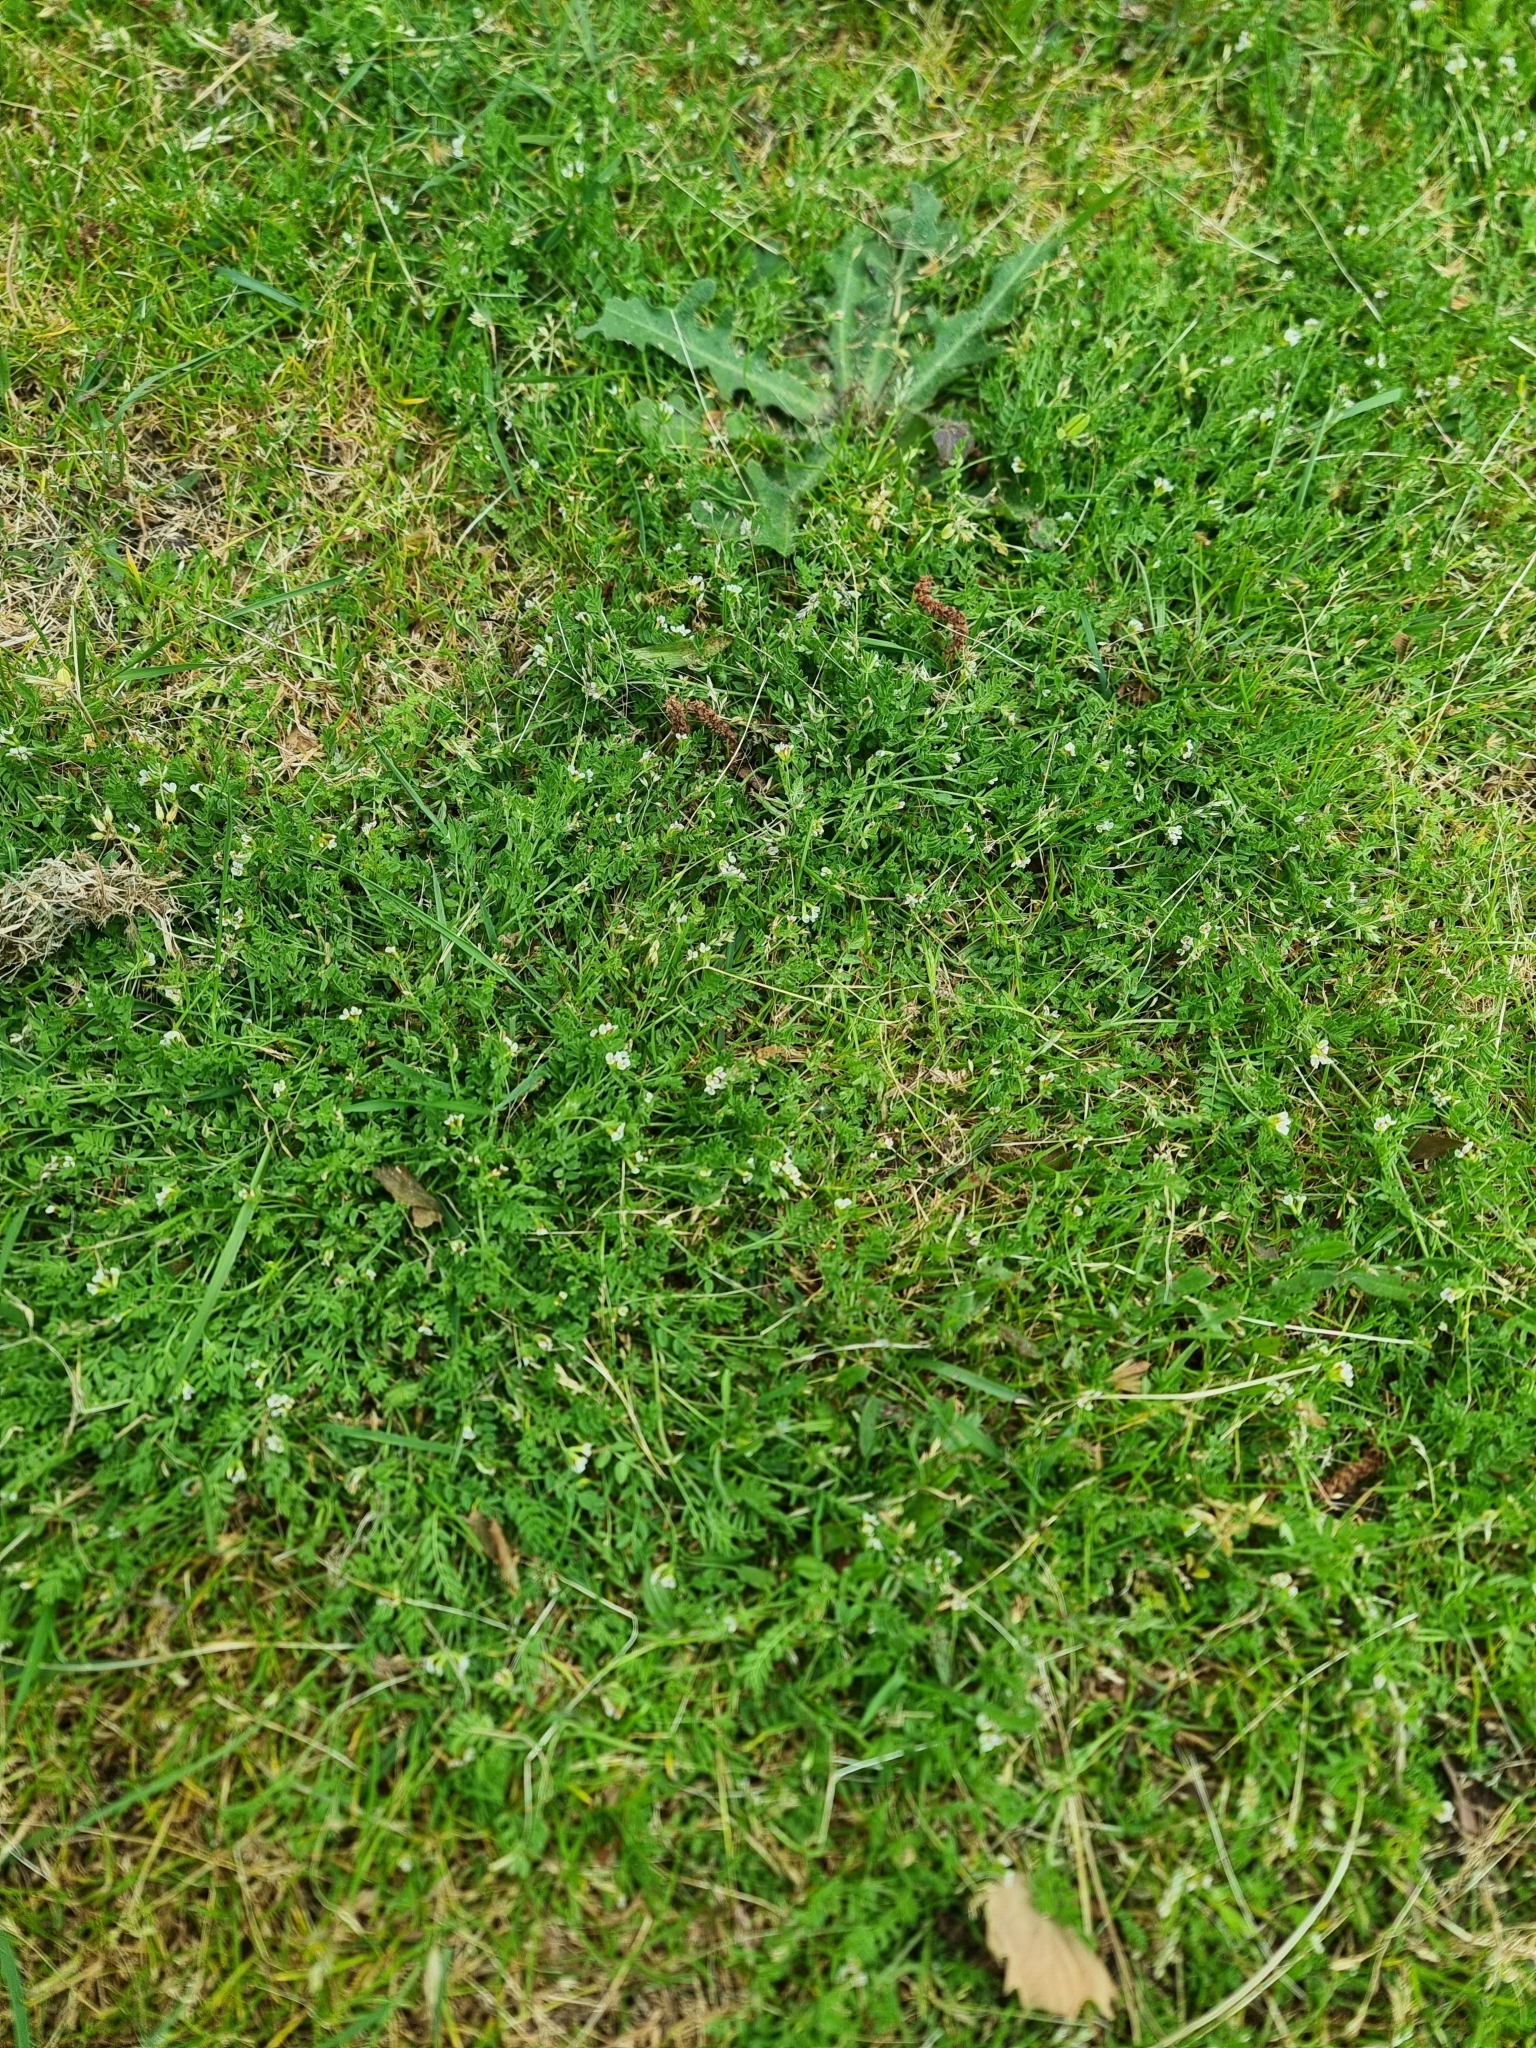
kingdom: Plantae
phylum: Tracheophyta
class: Magnoliopsida
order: Fabales
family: Fabaceae
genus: Ornithopus
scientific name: Ornithopus perpusillus
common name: Bird's-foot
